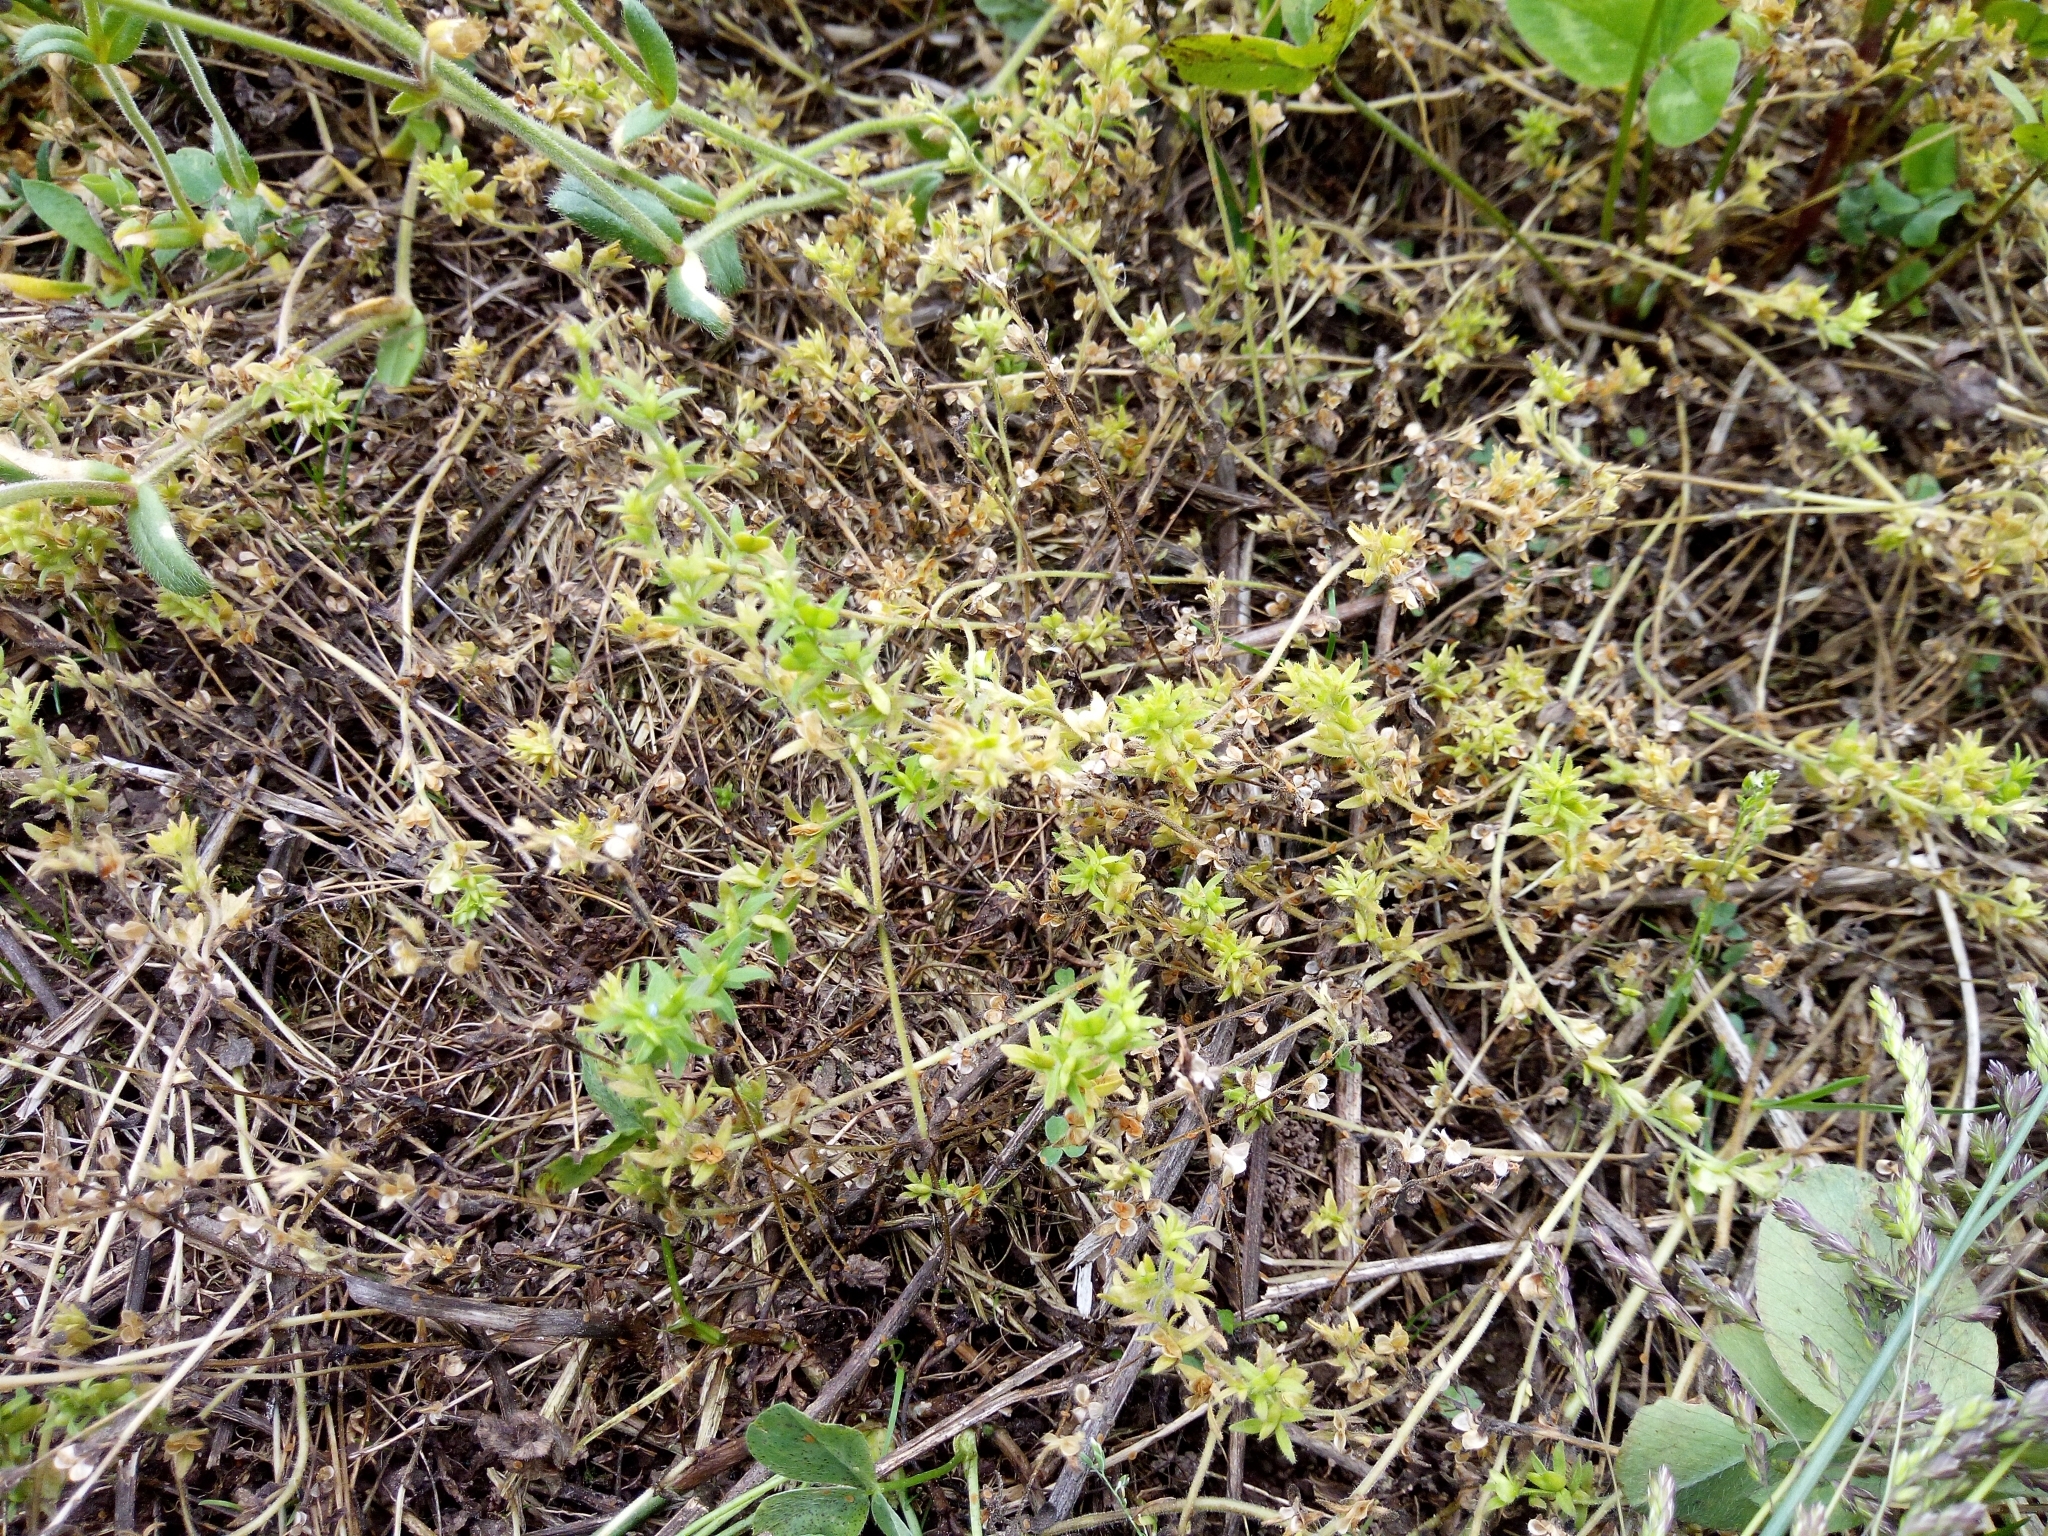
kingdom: Plantae
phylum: Tracheophyta
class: Magnoliopsida
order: Lamiales
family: Plantaginaceae
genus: Veronica
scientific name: Veronica arvensis
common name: Corn speedwell
